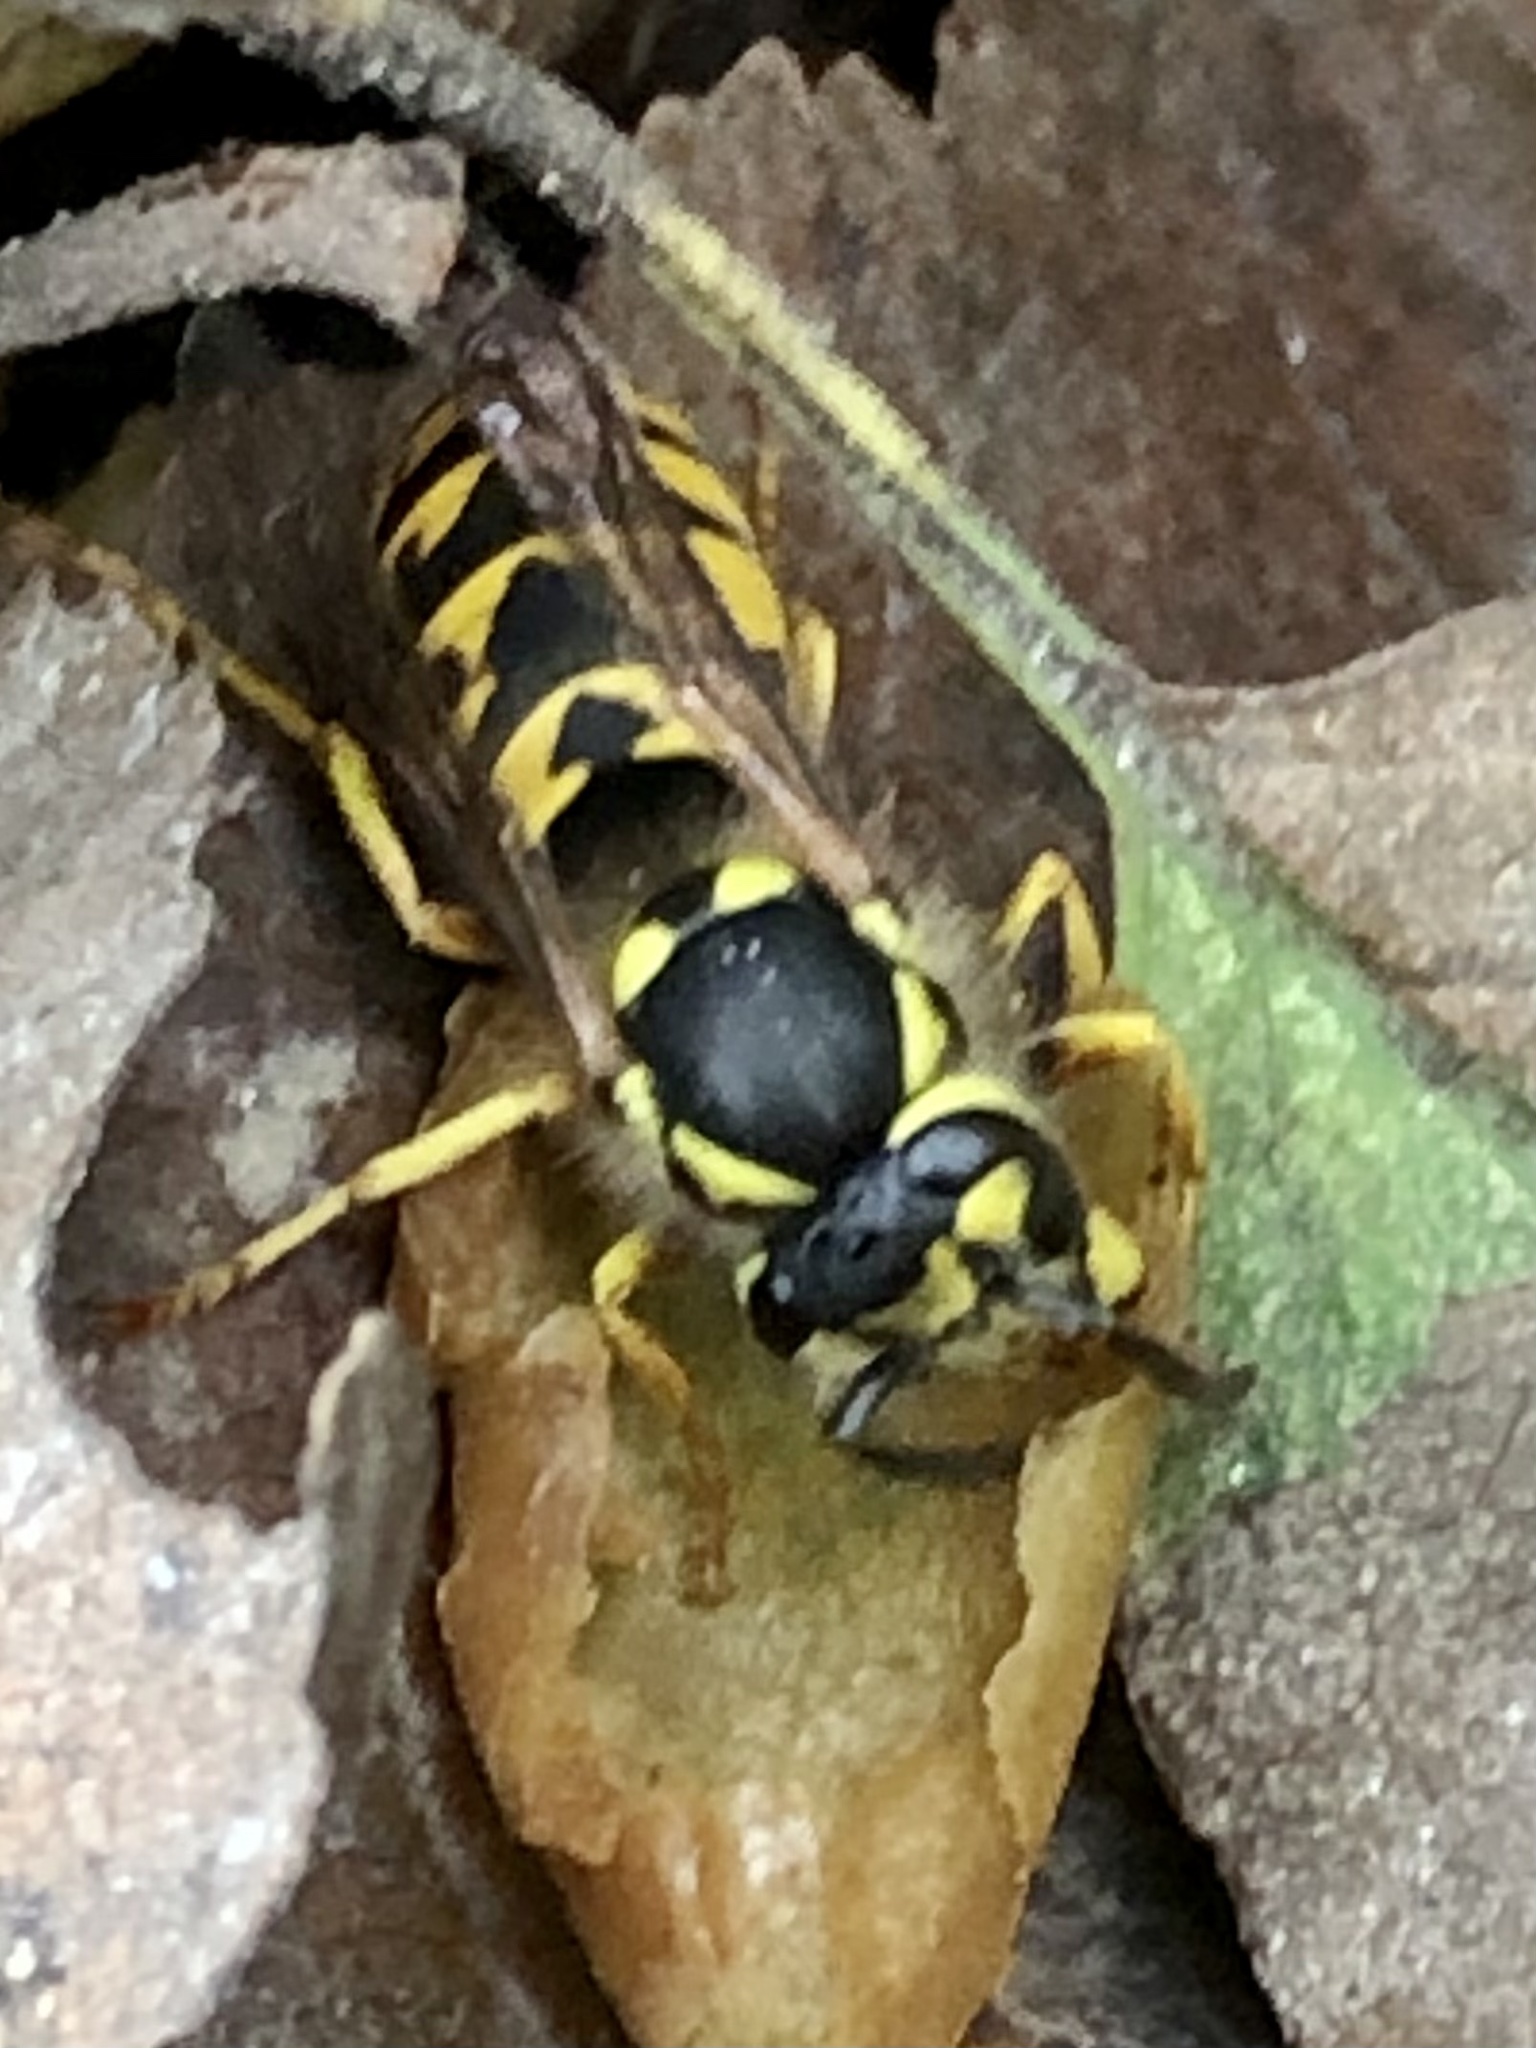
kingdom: Animalia
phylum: Arthropoda
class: Insecta
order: Hymenoptera
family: Vespidae
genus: Vespula
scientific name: Vespula germanica
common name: German wasp
